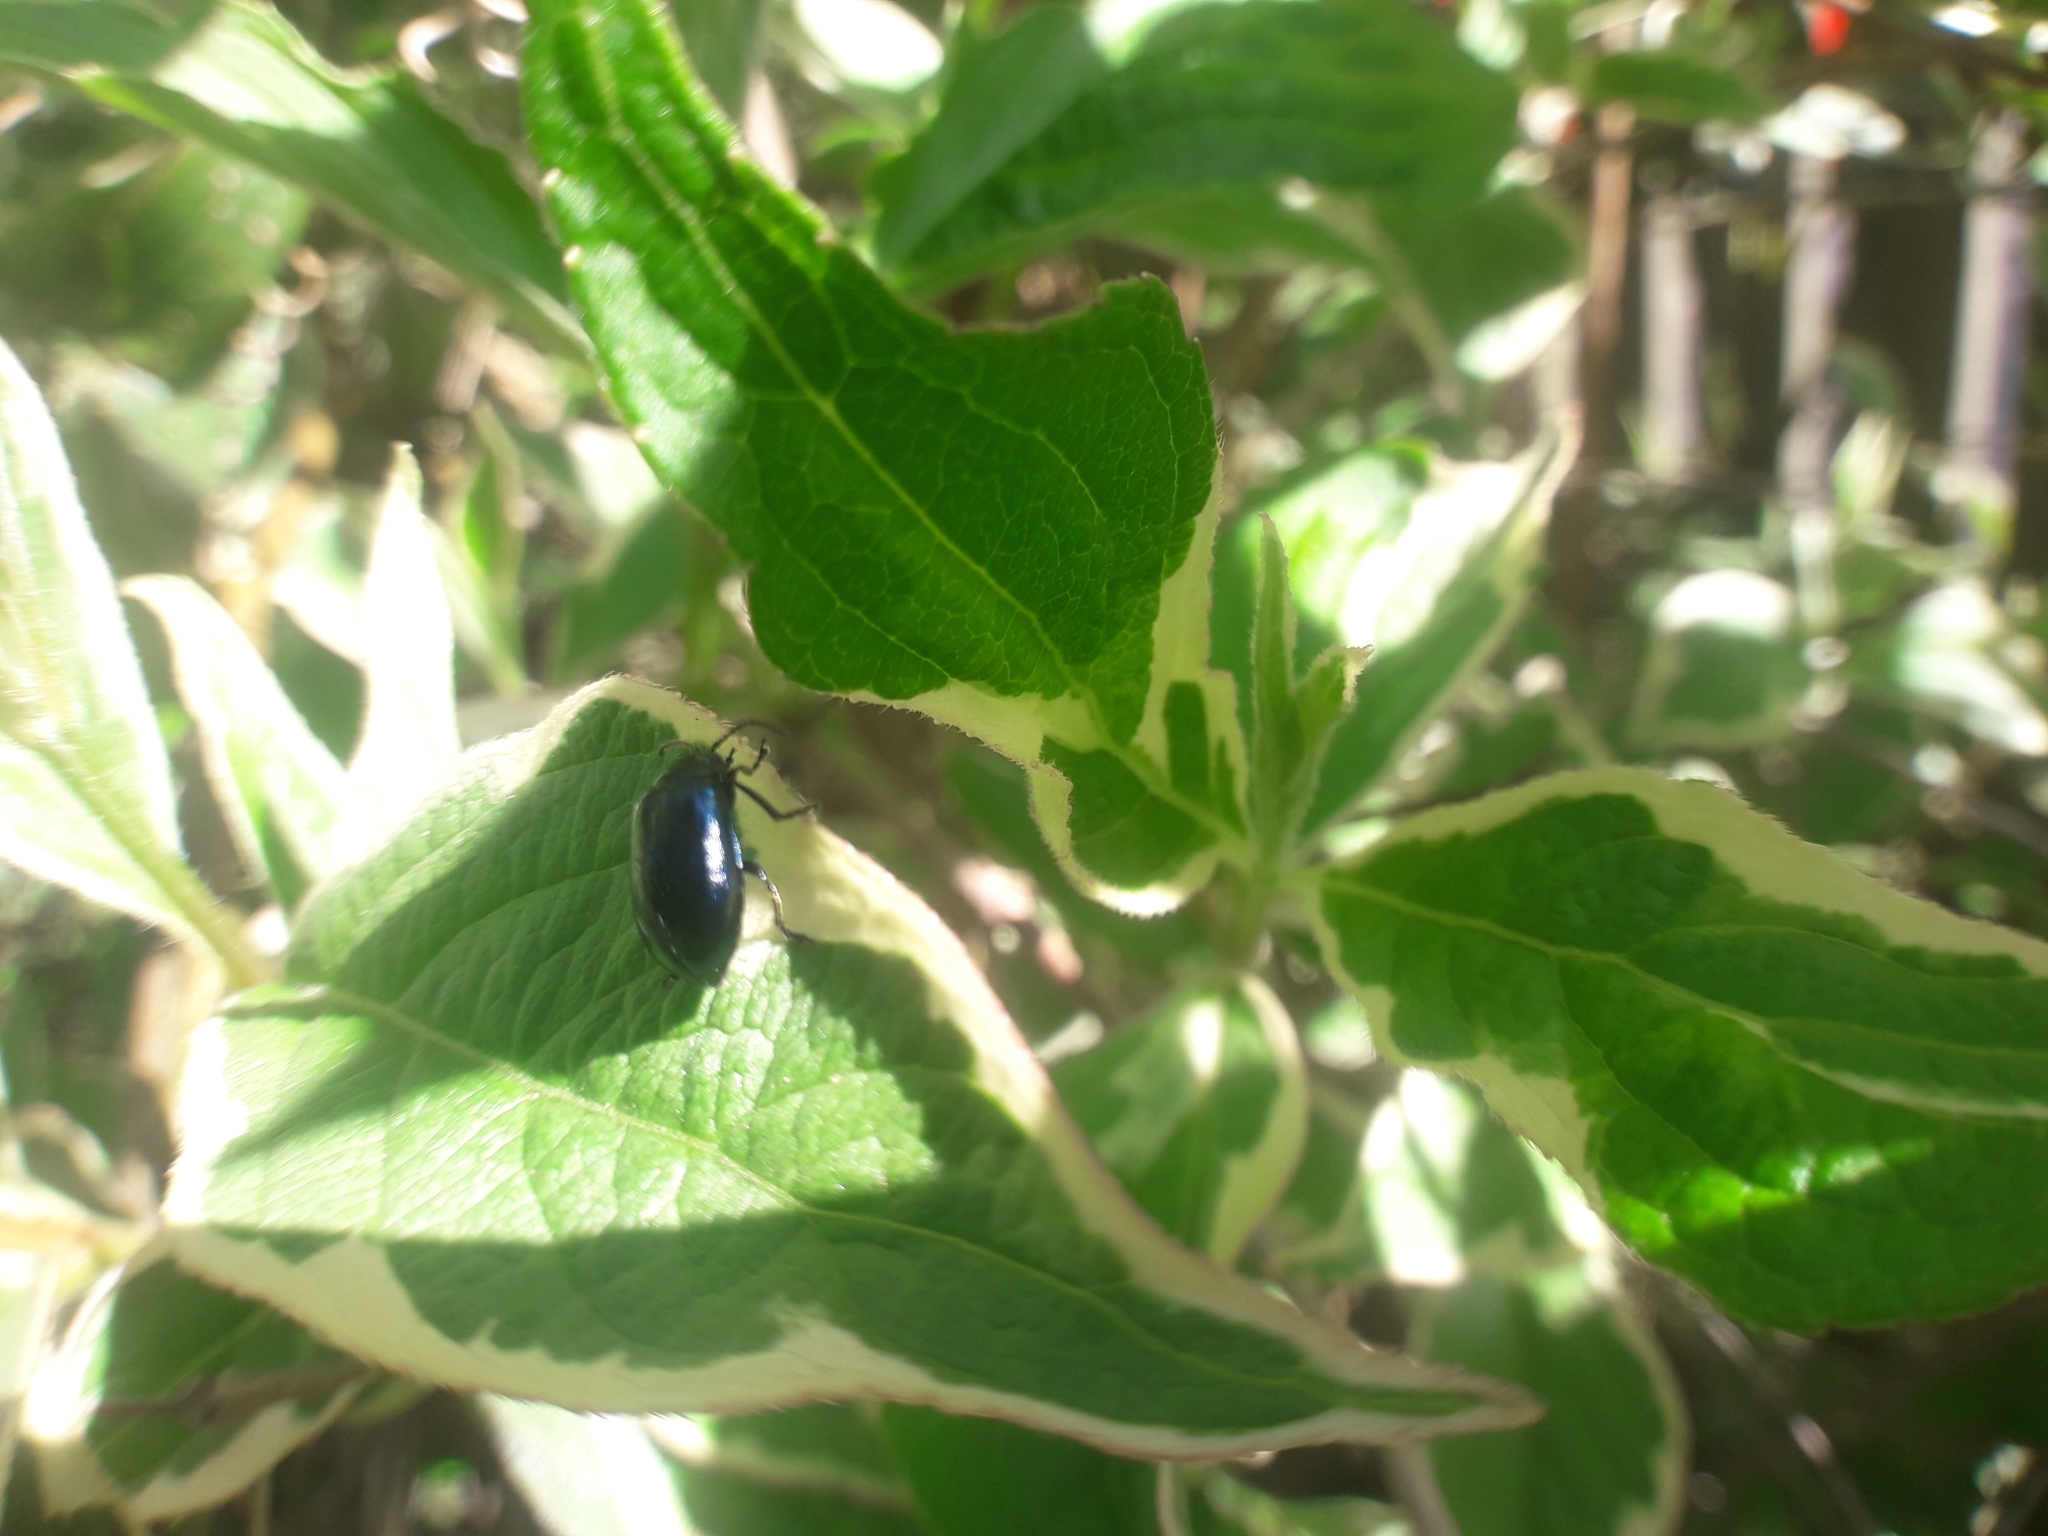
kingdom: Animalia
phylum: Arthropoda
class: Insecta
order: Coleoptera
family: Chrysomelidae
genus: Agelastica
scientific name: Agelastica alni
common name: Alder leaf beetle
